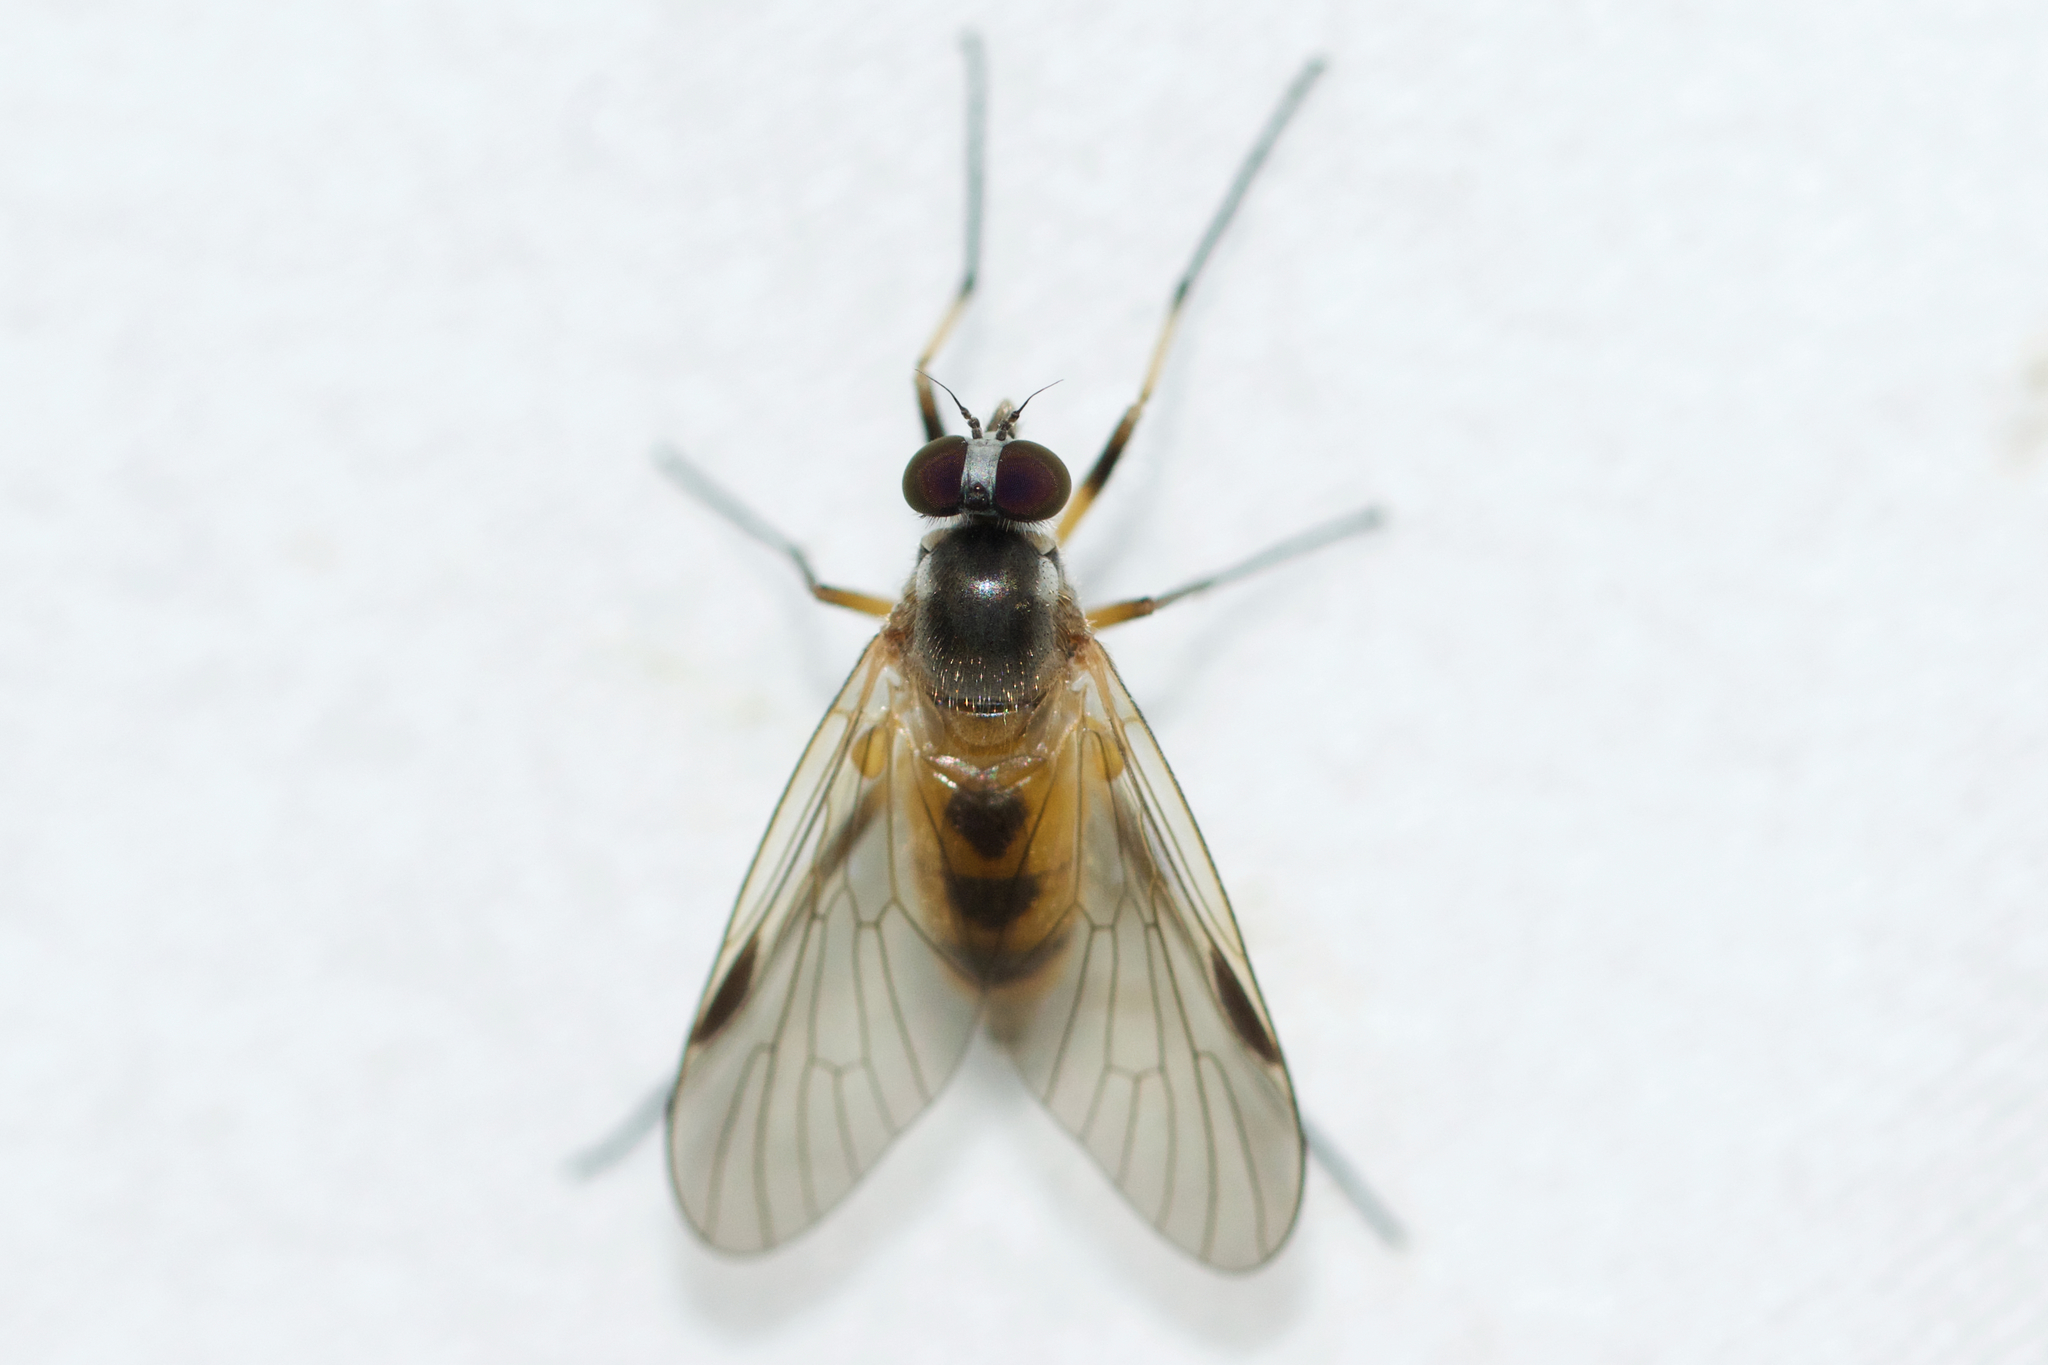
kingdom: Animalia
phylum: Arthropoda
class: Insecta
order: Diptera
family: Rhagionidae
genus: Rhagio
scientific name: Rhagio lineola
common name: Small fleck-winged snipefly
